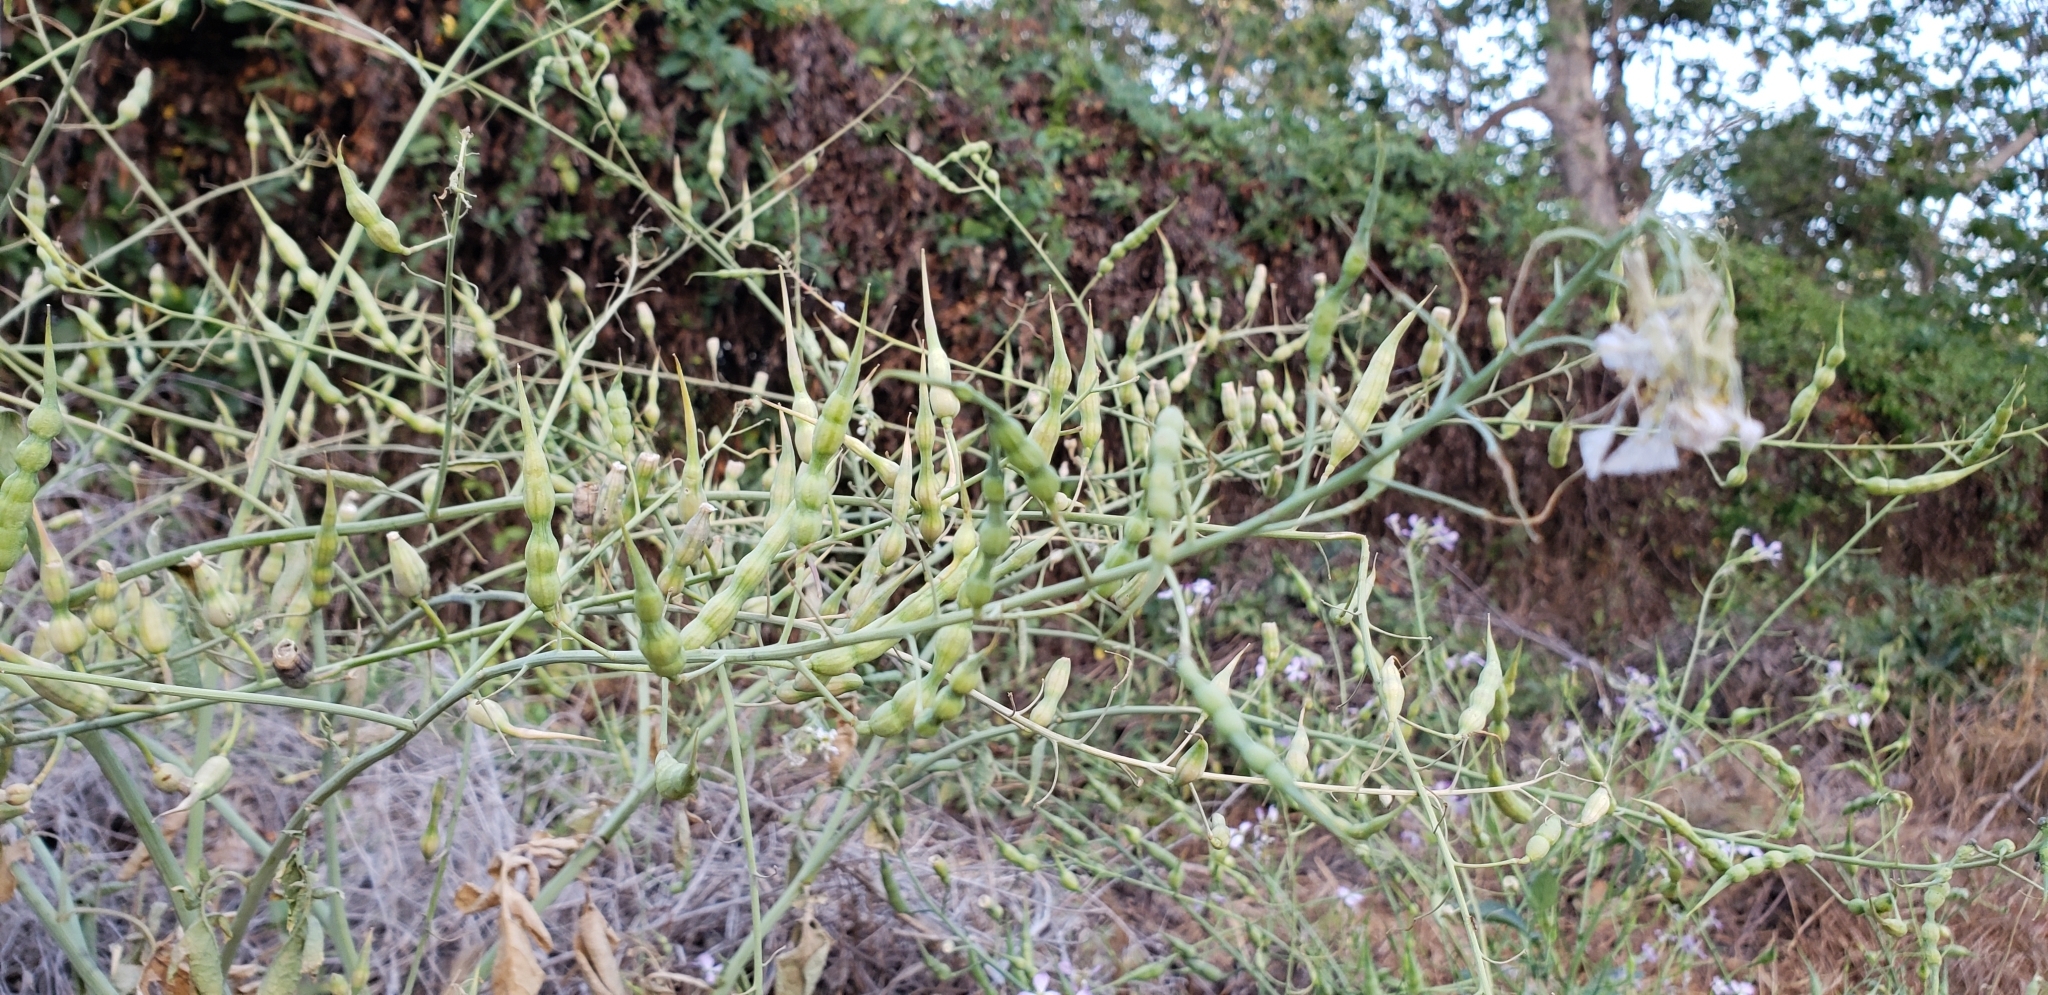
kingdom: Plantae
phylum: Tracheophyta
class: Magnoliopsida
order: Brassicales
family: Brassicaceae
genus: Raphanus
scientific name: Raphanus sativus
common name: Cultivated radish
